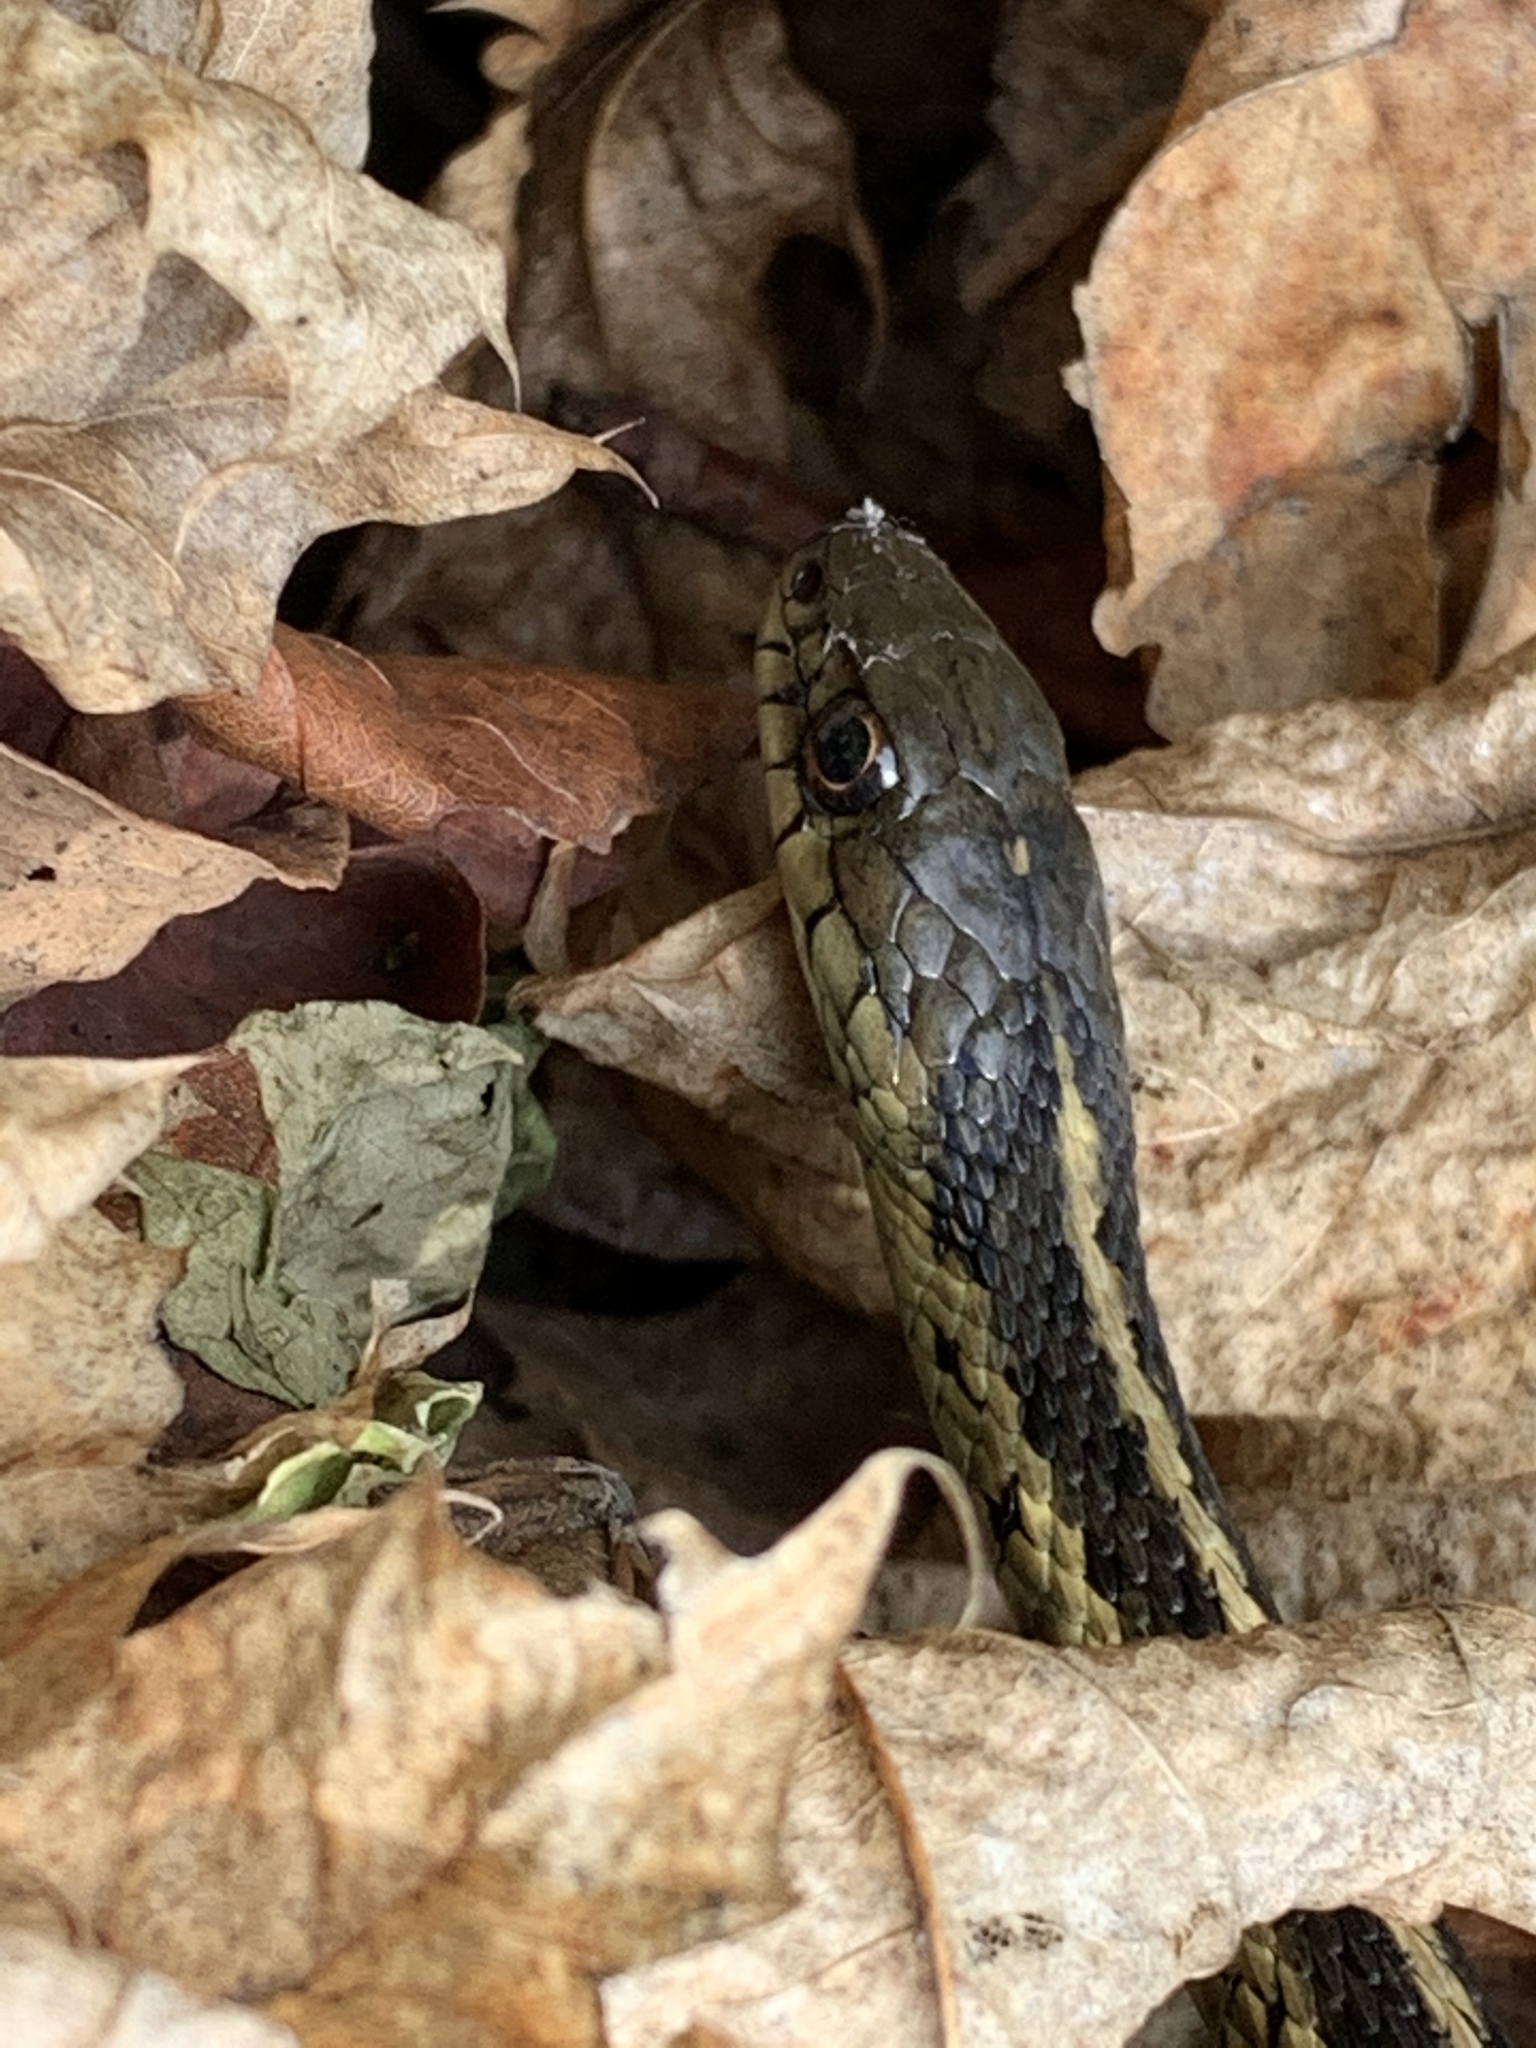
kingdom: Animalia
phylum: Chordata
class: Squamata
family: Colubridae
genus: Thamnophis
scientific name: Thamnophis sirtalis
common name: Common garter snake
